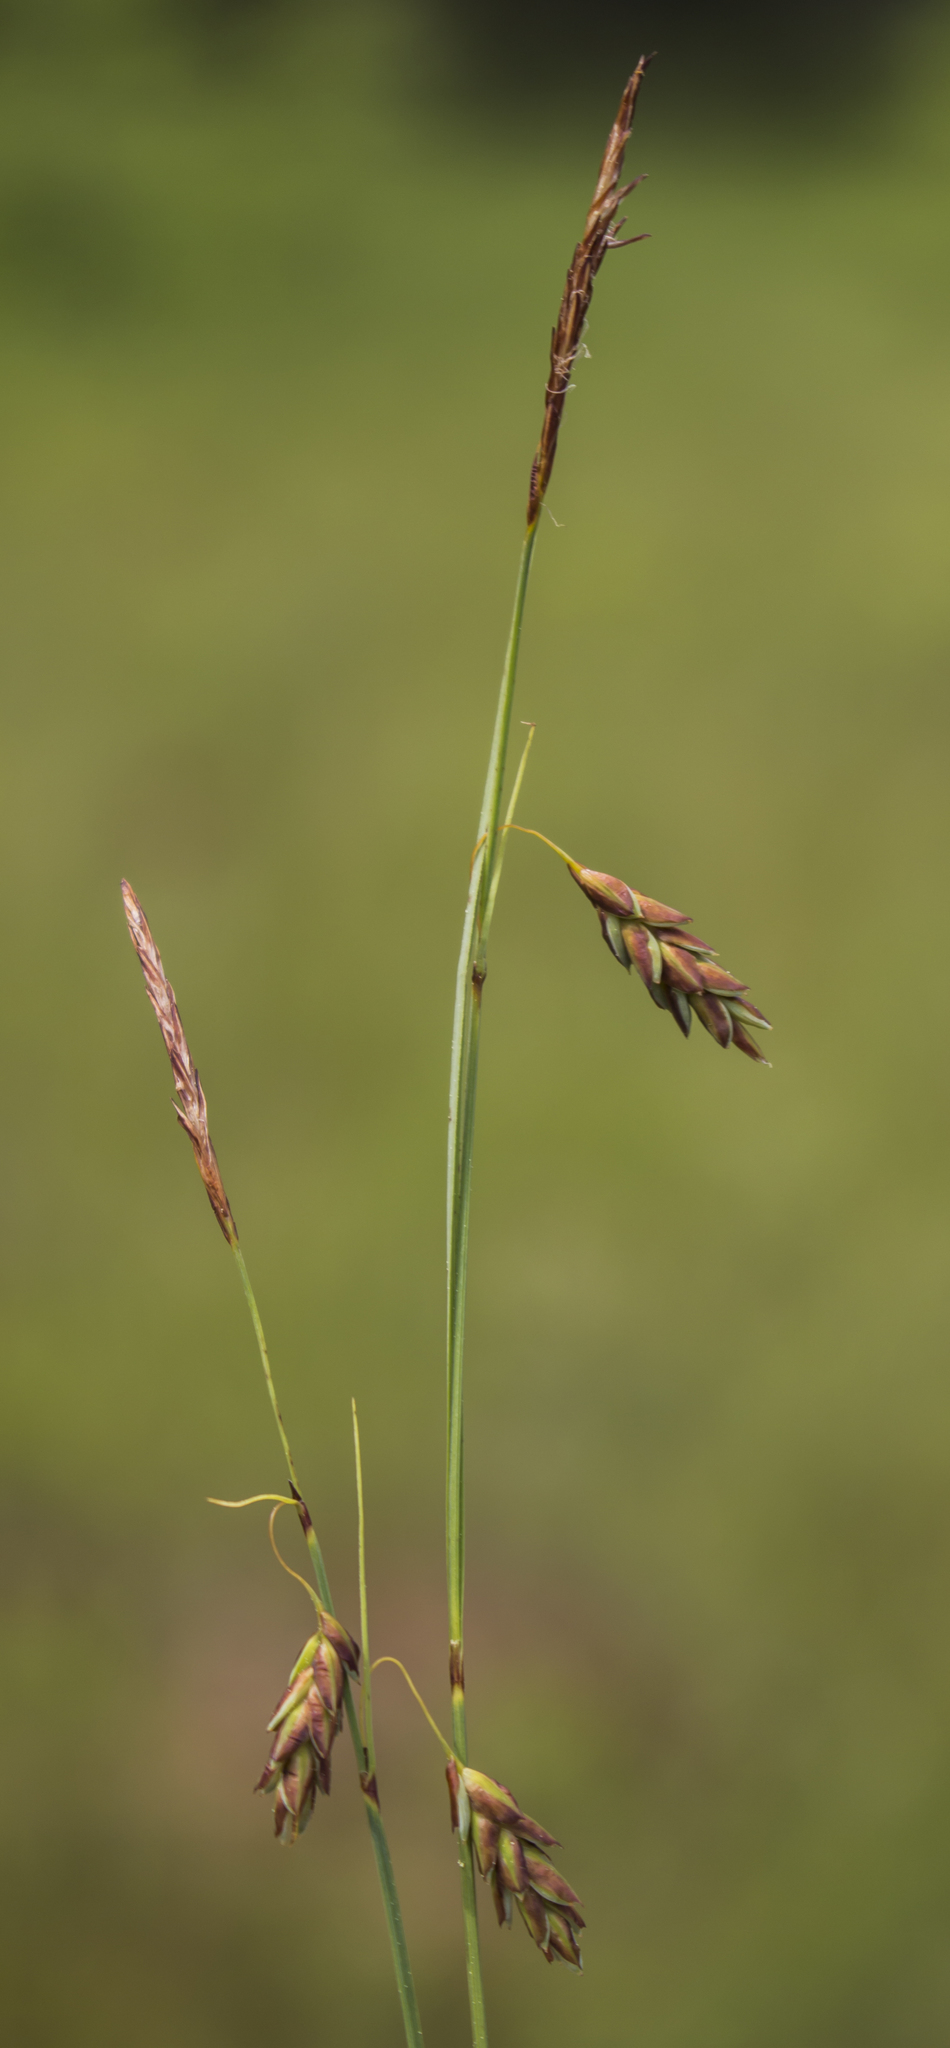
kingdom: Plantae
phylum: Tracheophyta
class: Liliopsida
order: Poales
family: Cyperaceae
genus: Carex
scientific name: Carex limosa
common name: Bog sedge
